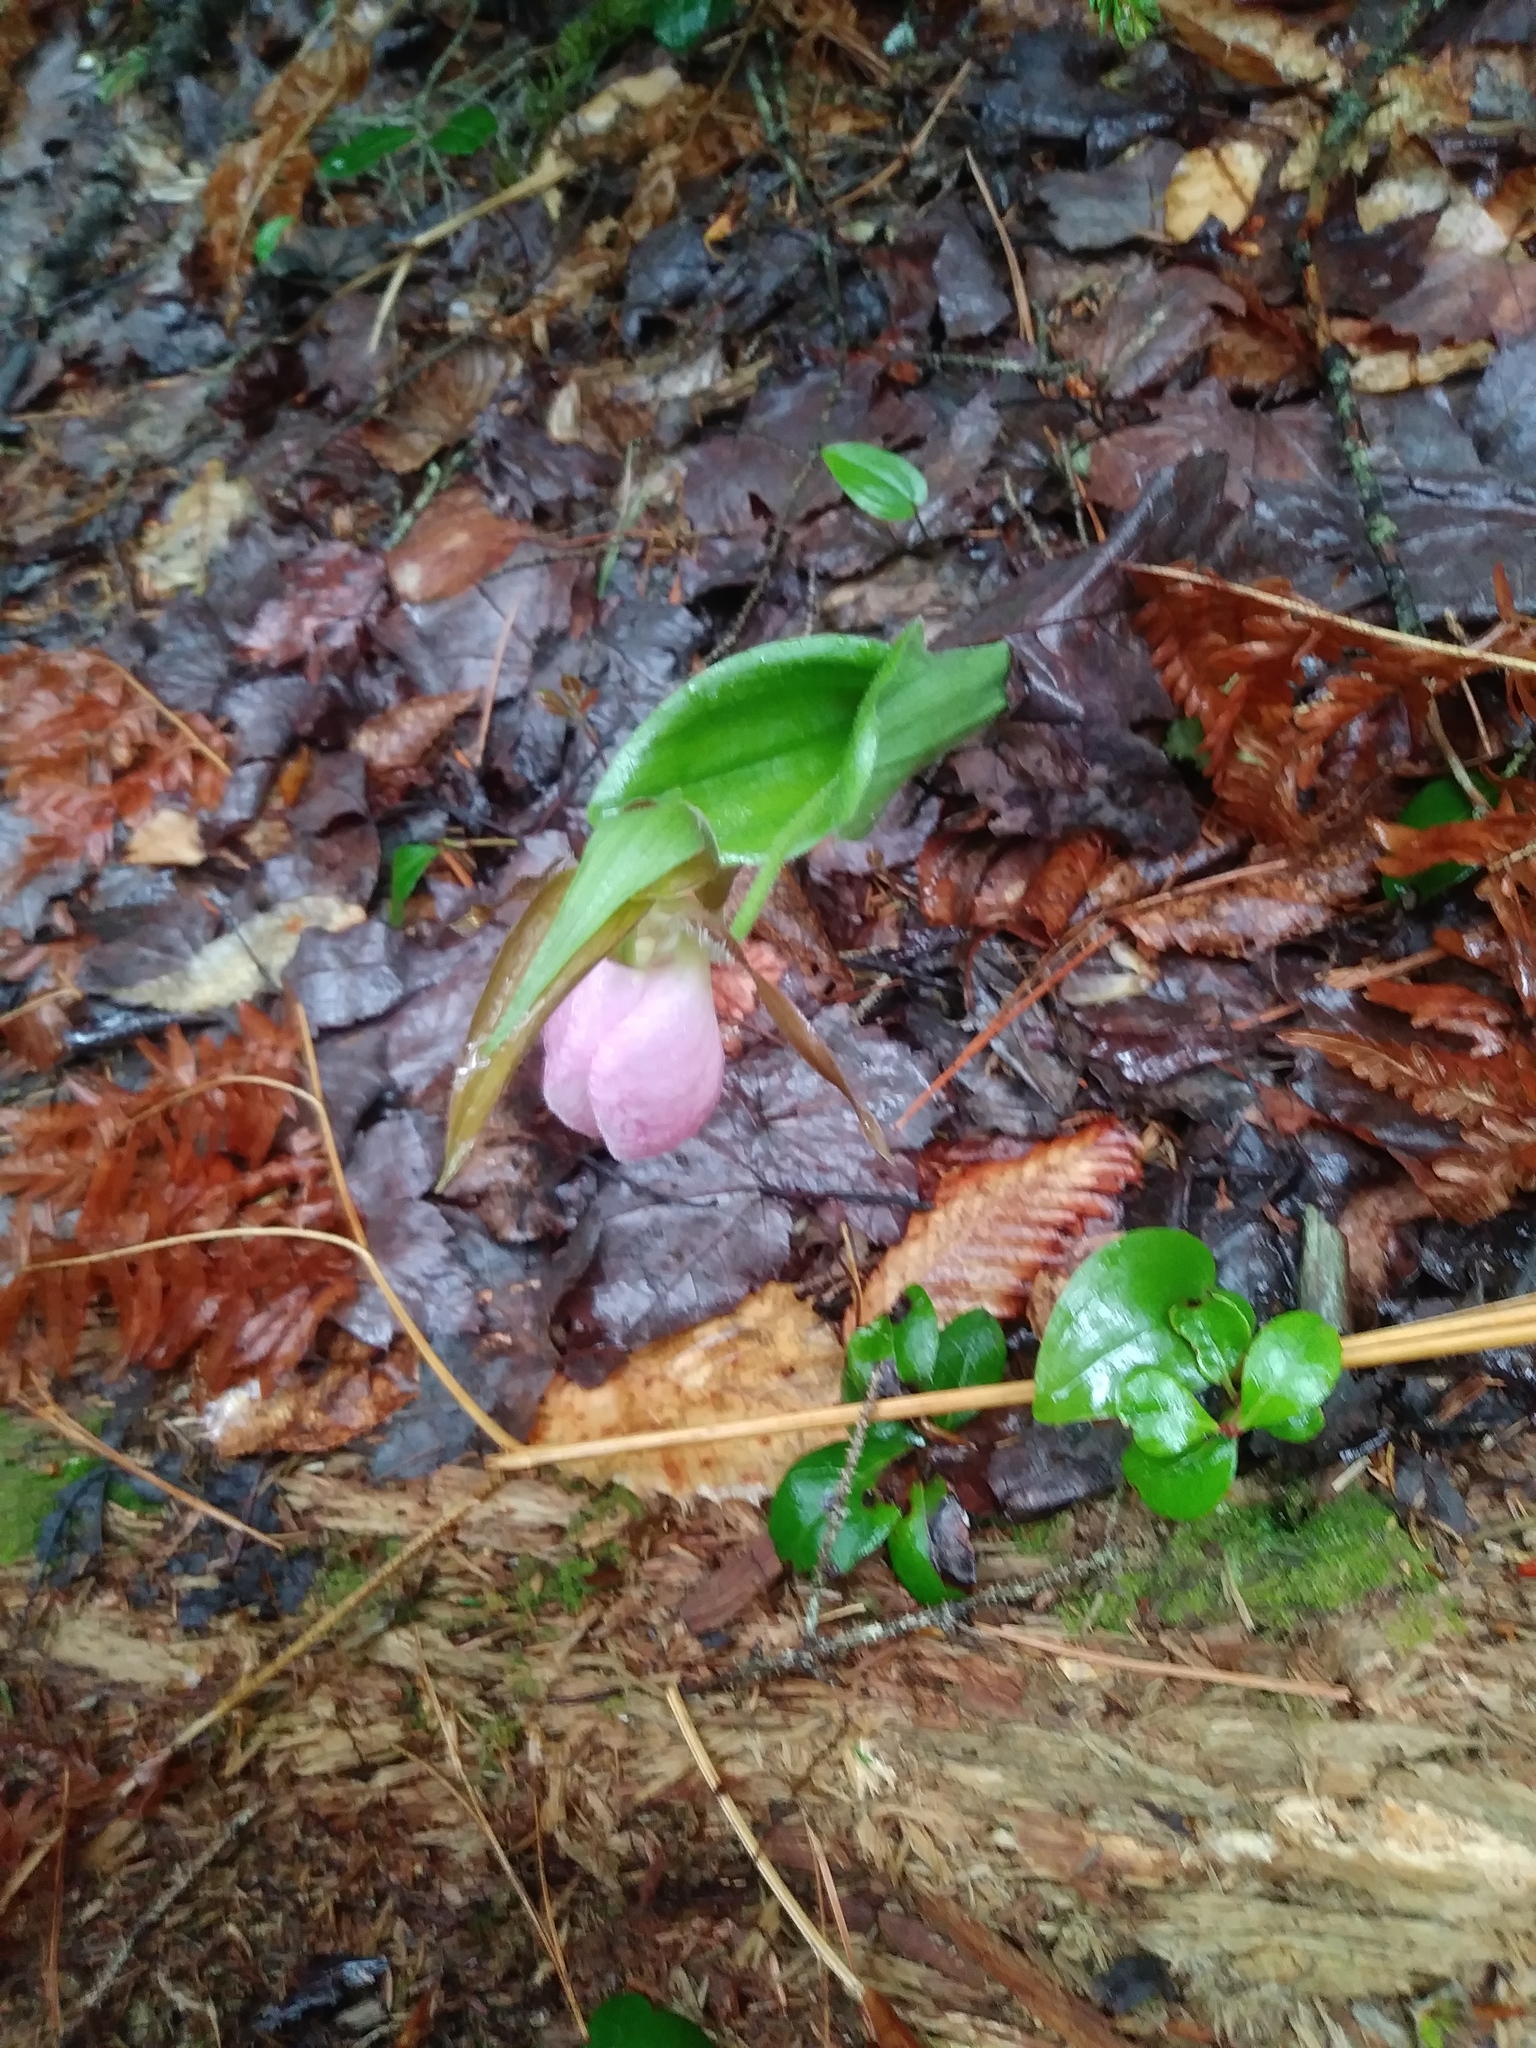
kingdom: Plantae
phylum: Tracheophyta
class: Liliopsida
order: Asparagales
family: Orchidaceae
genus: Cypripedium
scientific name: Cypripedium acaule
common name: Pink lady's-slipper
